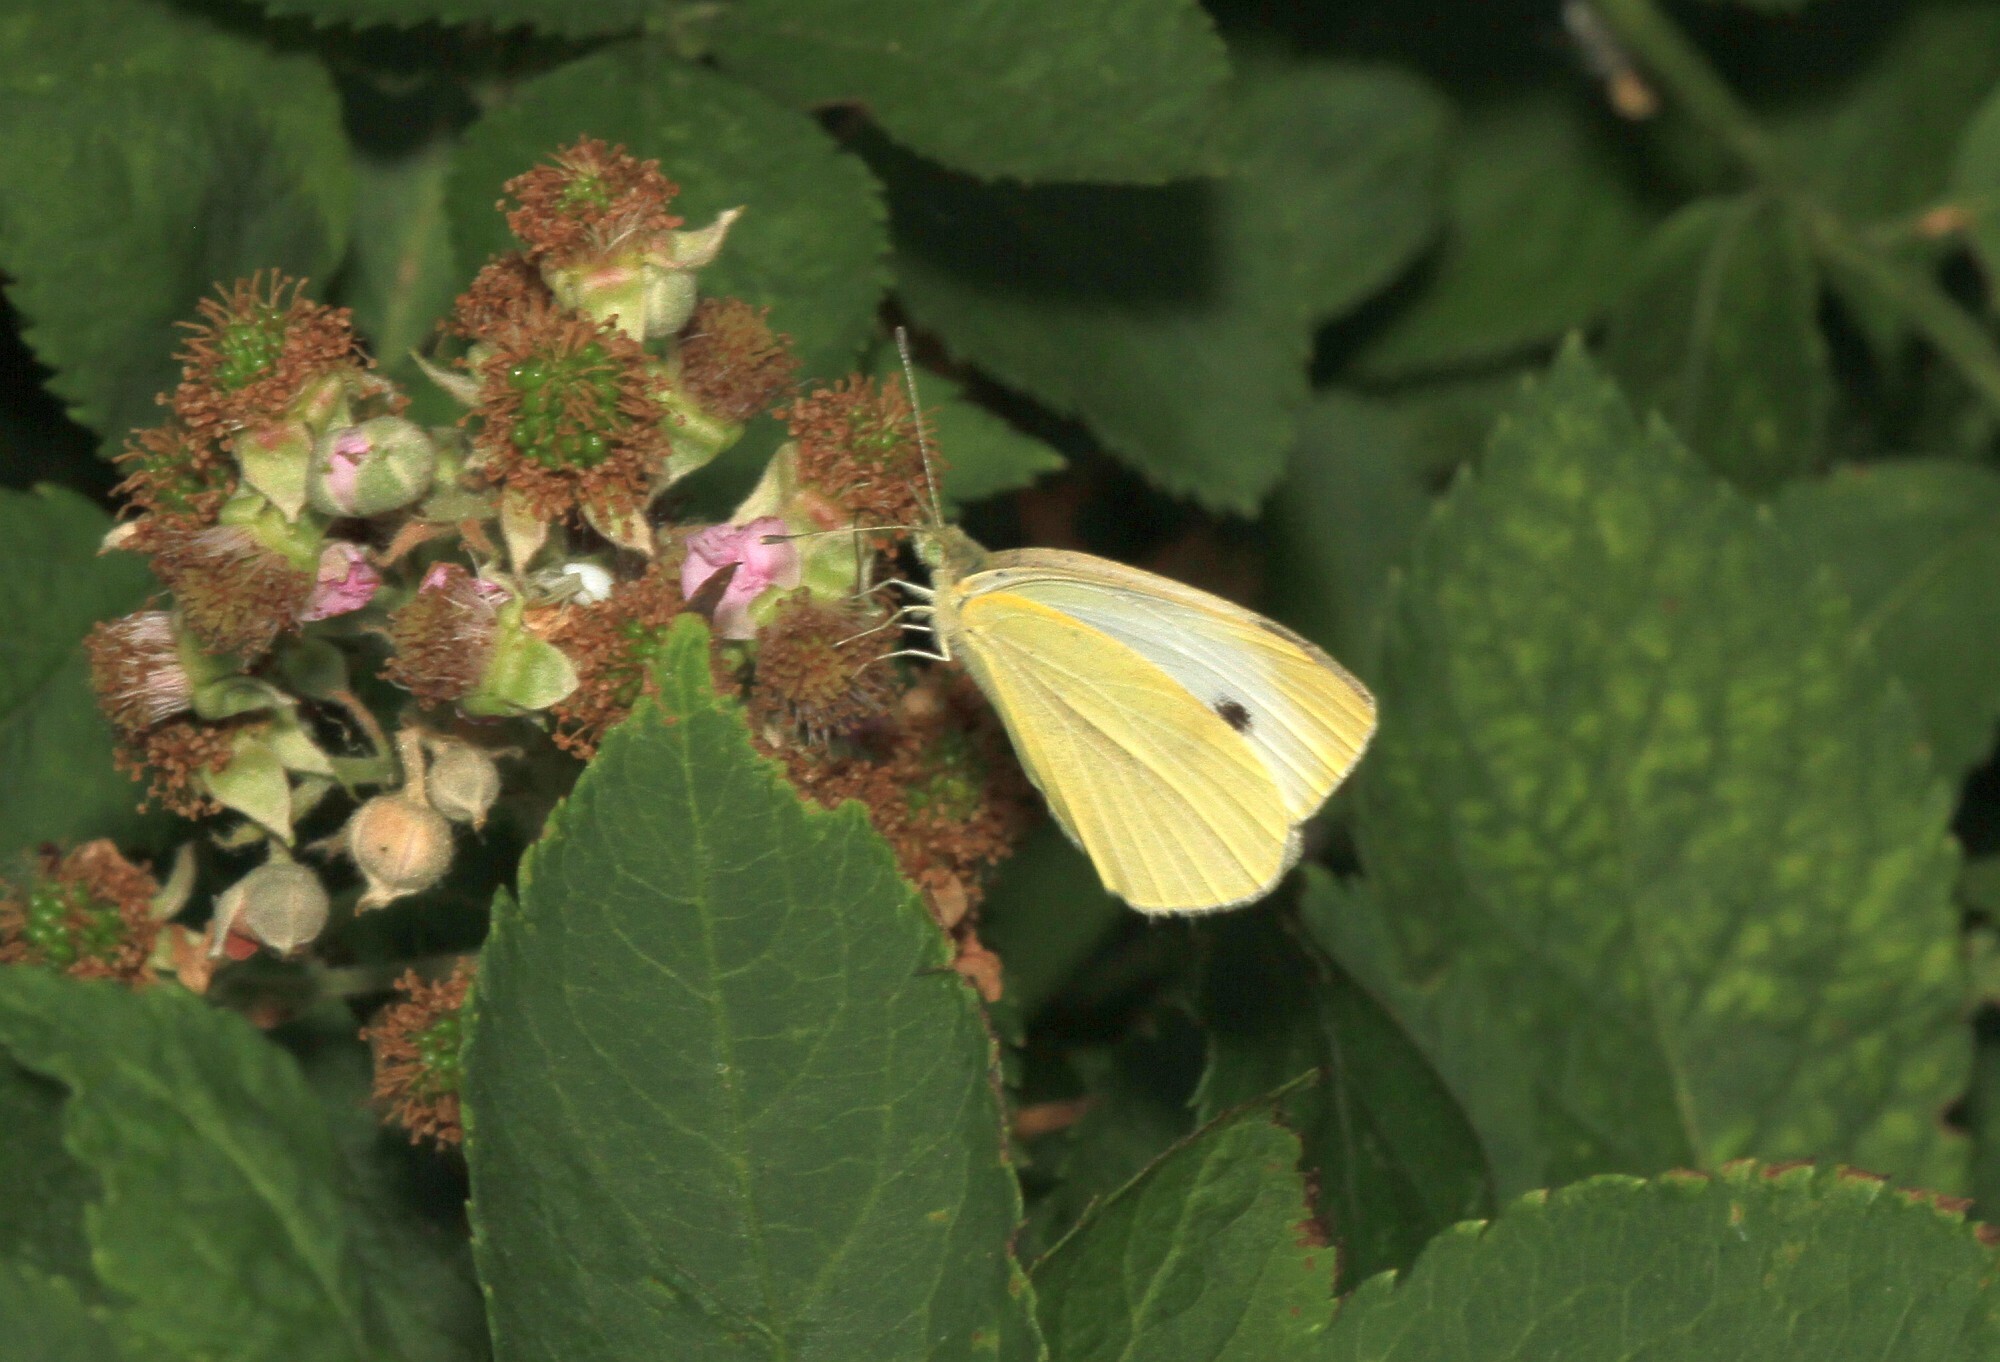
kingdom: Animalia
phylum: Arthropoda
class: Insecta
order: Lepidoptera
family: Pieridae
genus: Pieris
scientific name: Pieris rapae
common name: Small white
